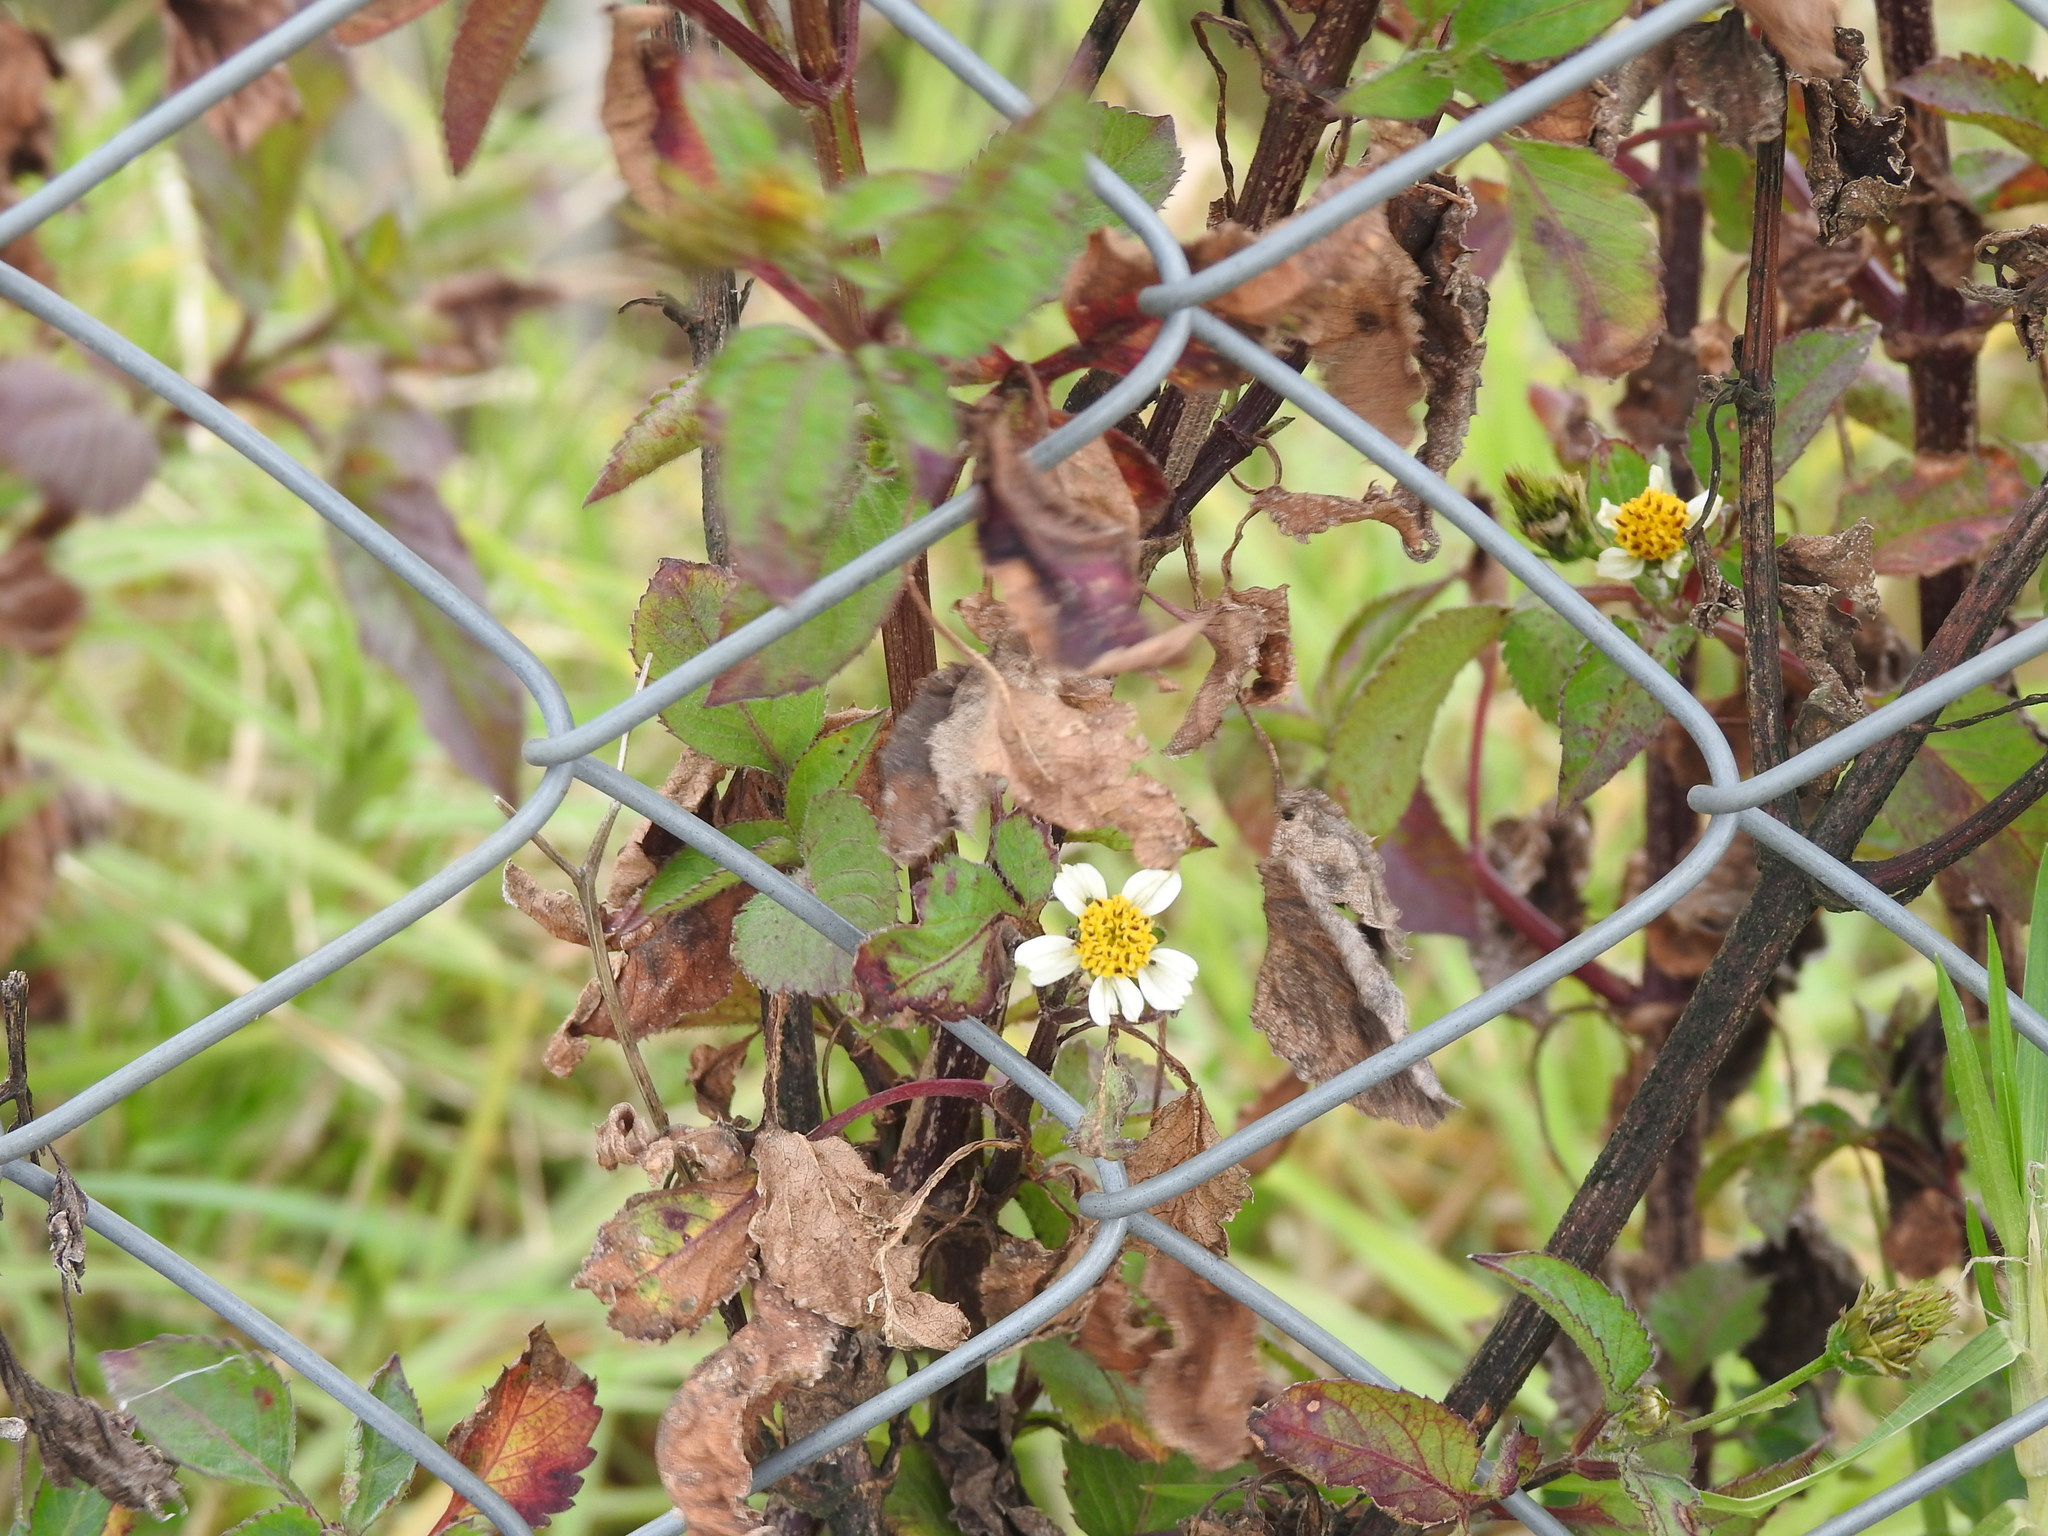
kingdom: Plantae
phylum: Tracheophyta
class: Magnoliopsida
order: Asterales
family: Asteraceae
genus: Bidens
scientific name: Bidens pilosa
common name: Black-jack
